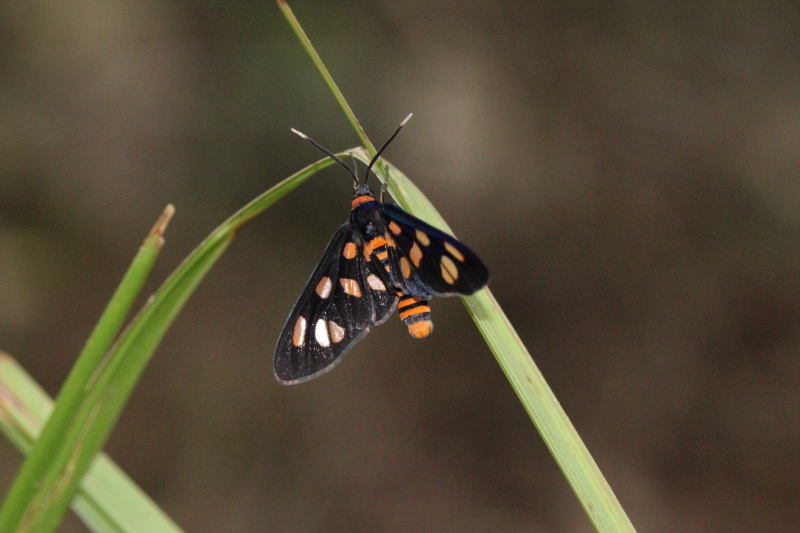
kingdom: Animalia
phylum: Arthropoda
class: Insecta
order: Lepidoptera
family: Erebidae
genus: Amata
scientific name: Amata nigriceps
